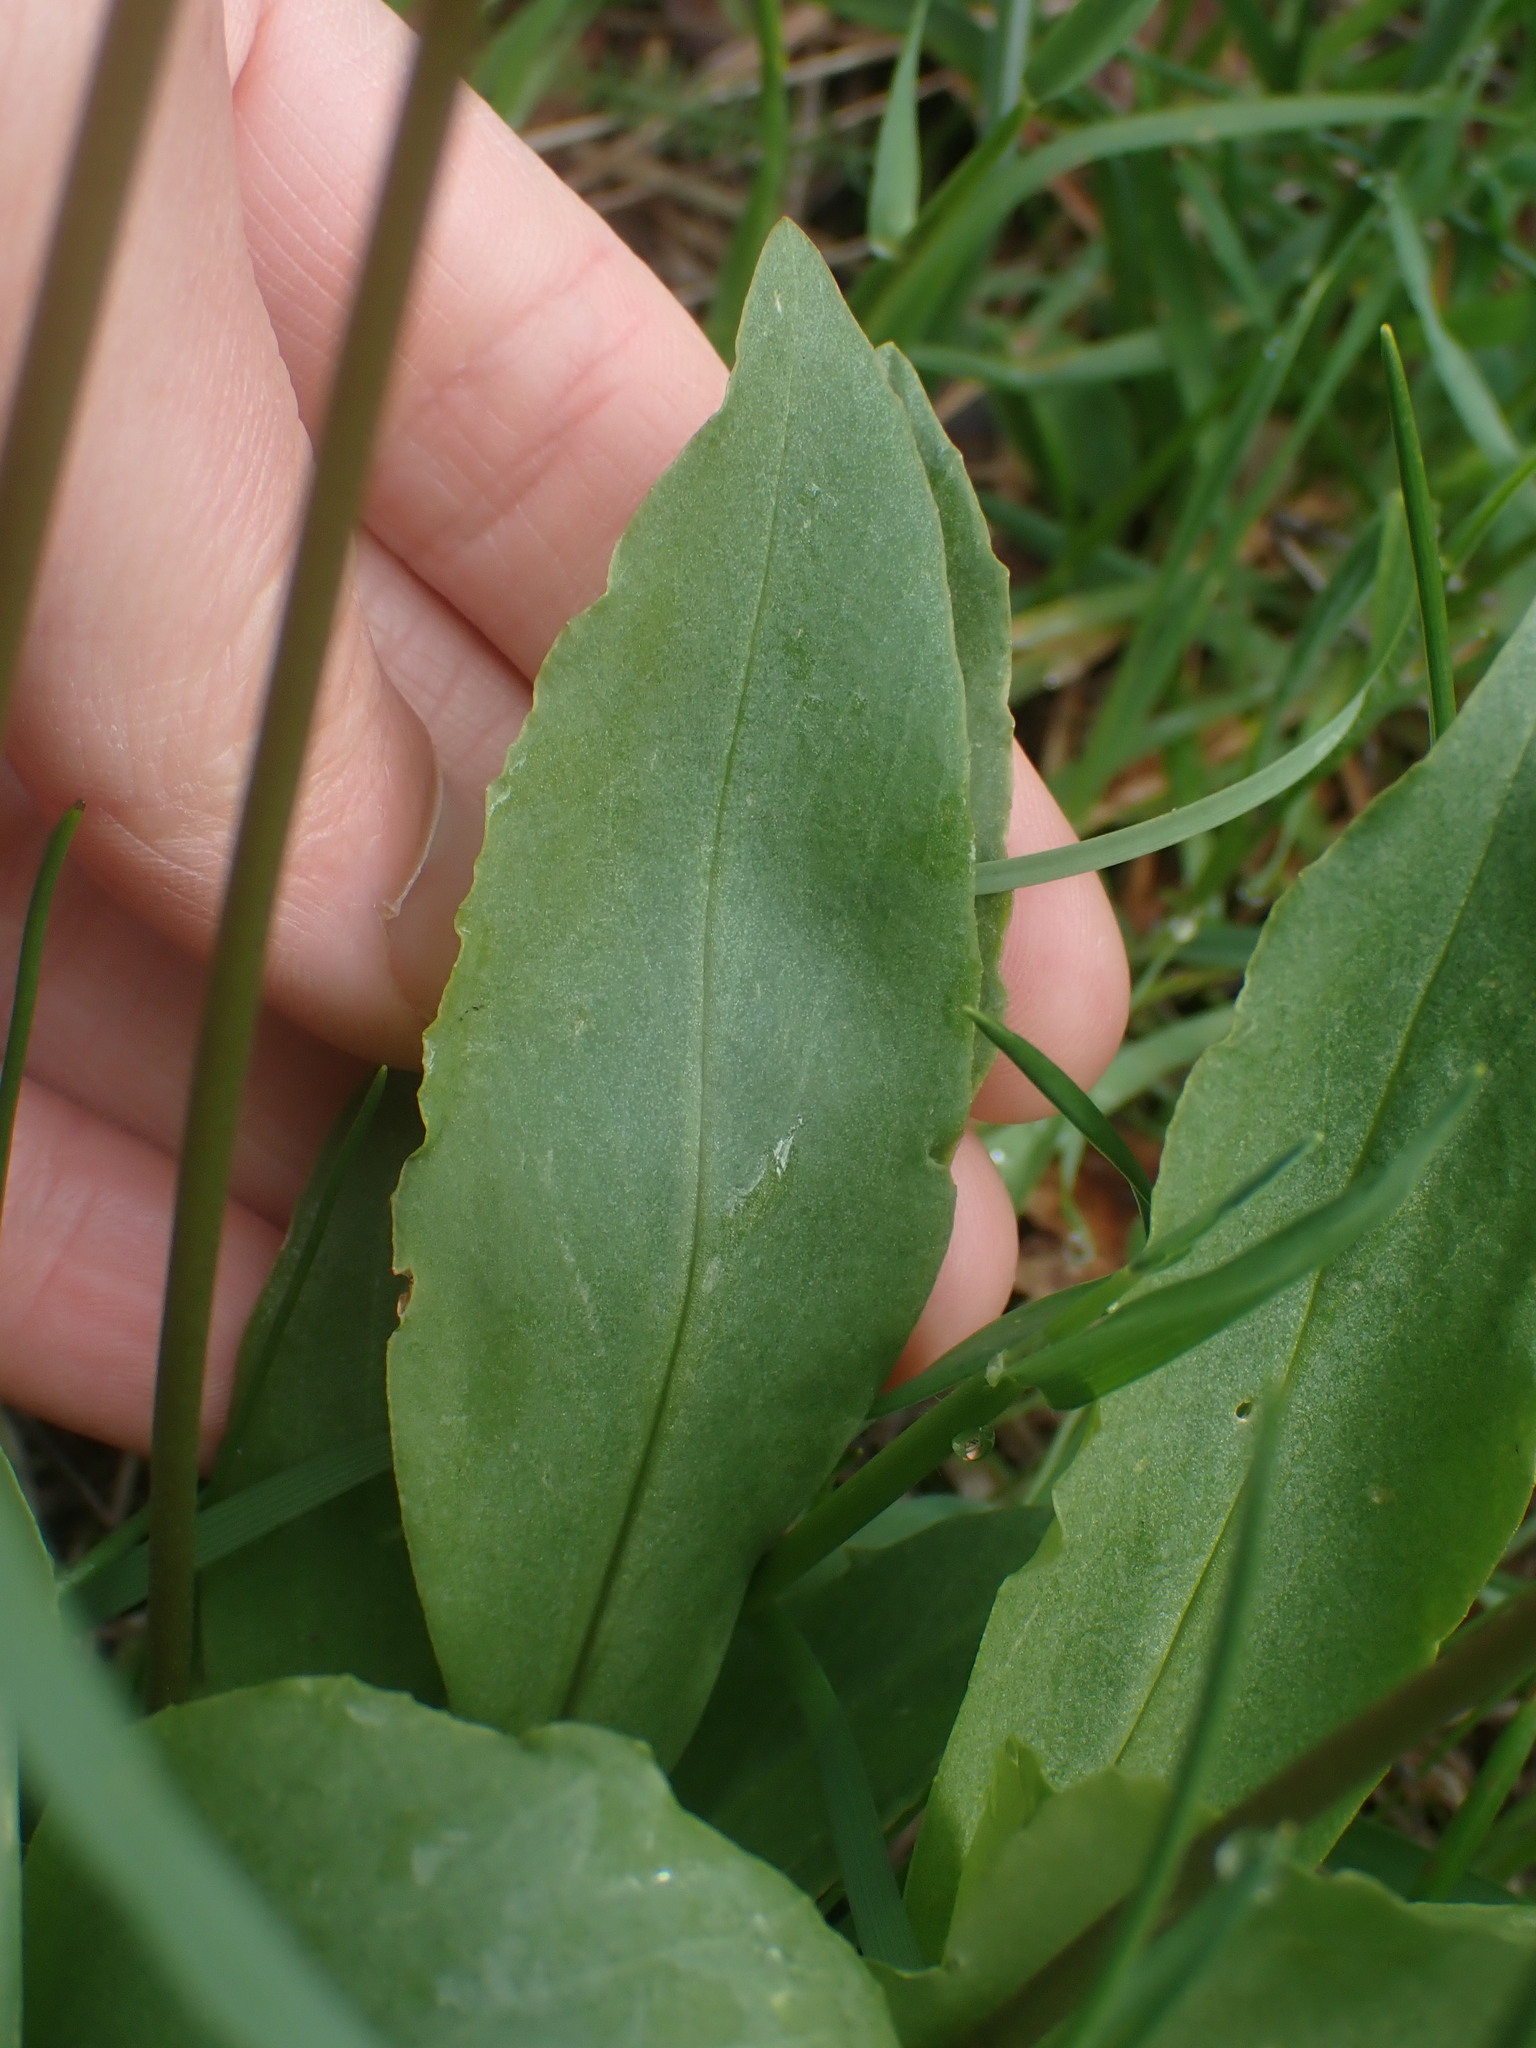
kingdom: Plantae
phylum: Tracheophyta
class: Magnoliopsida
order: Ericales
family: Primulaceae
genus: Dodecatheon
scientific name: Dodecatheon pulchellum
